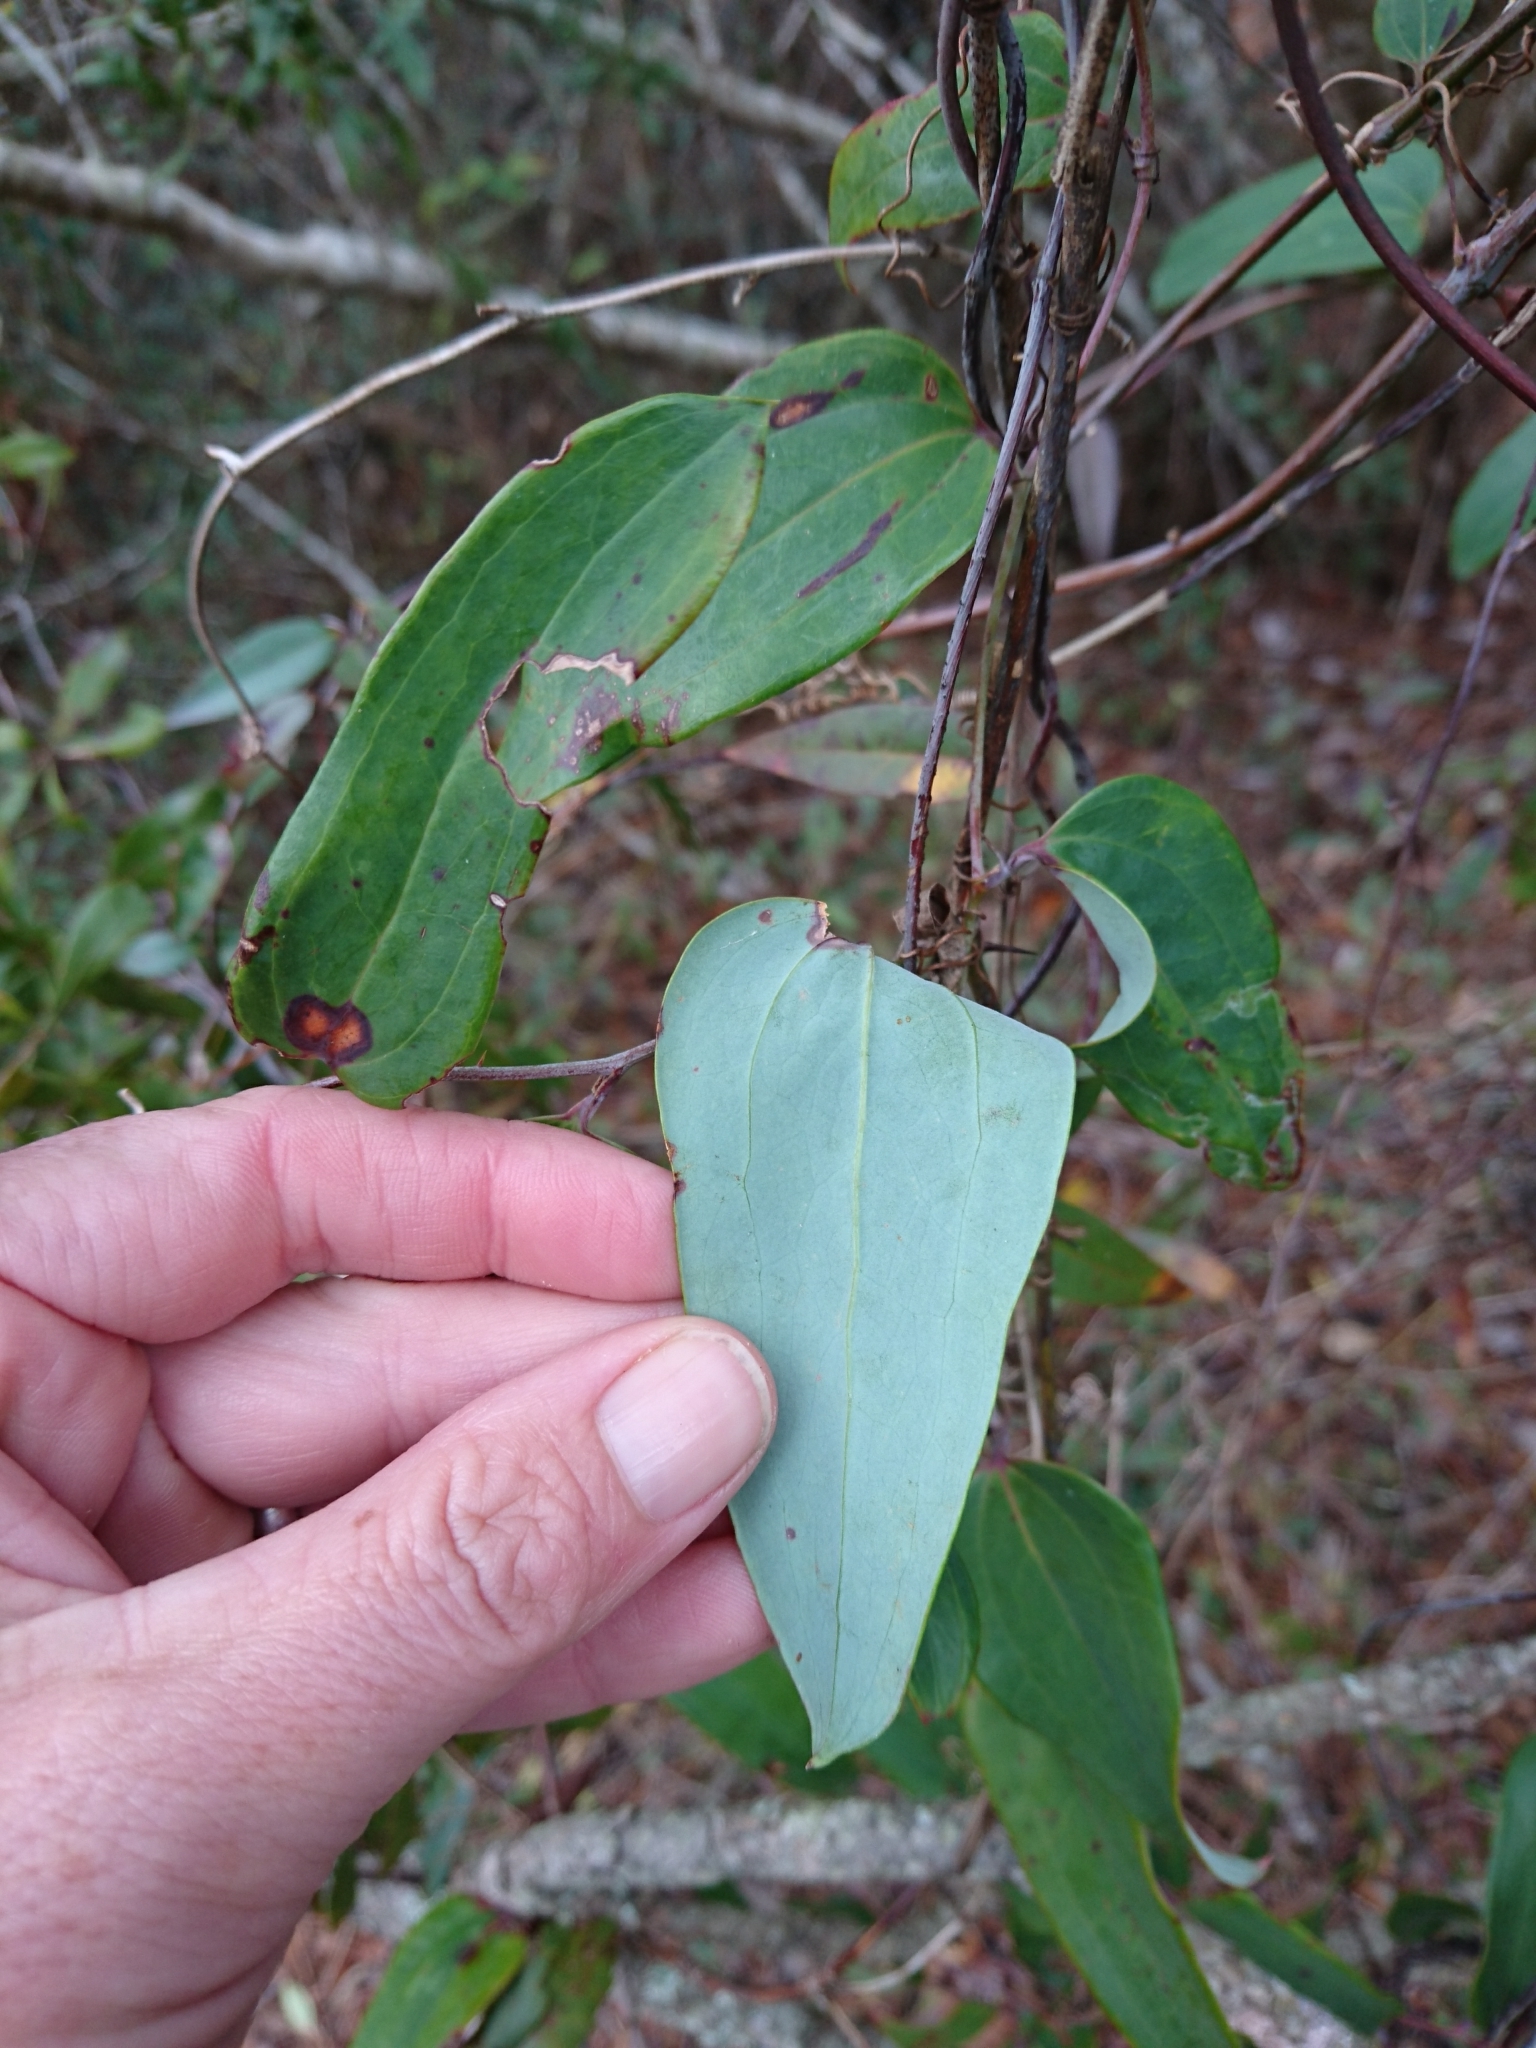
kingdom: Plantae
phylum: Tracheophyta
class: Liliopsida
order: Liliales
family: Smilacaceae
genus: Smilax
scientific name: Smilax glauca
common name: Cat greenbrier
